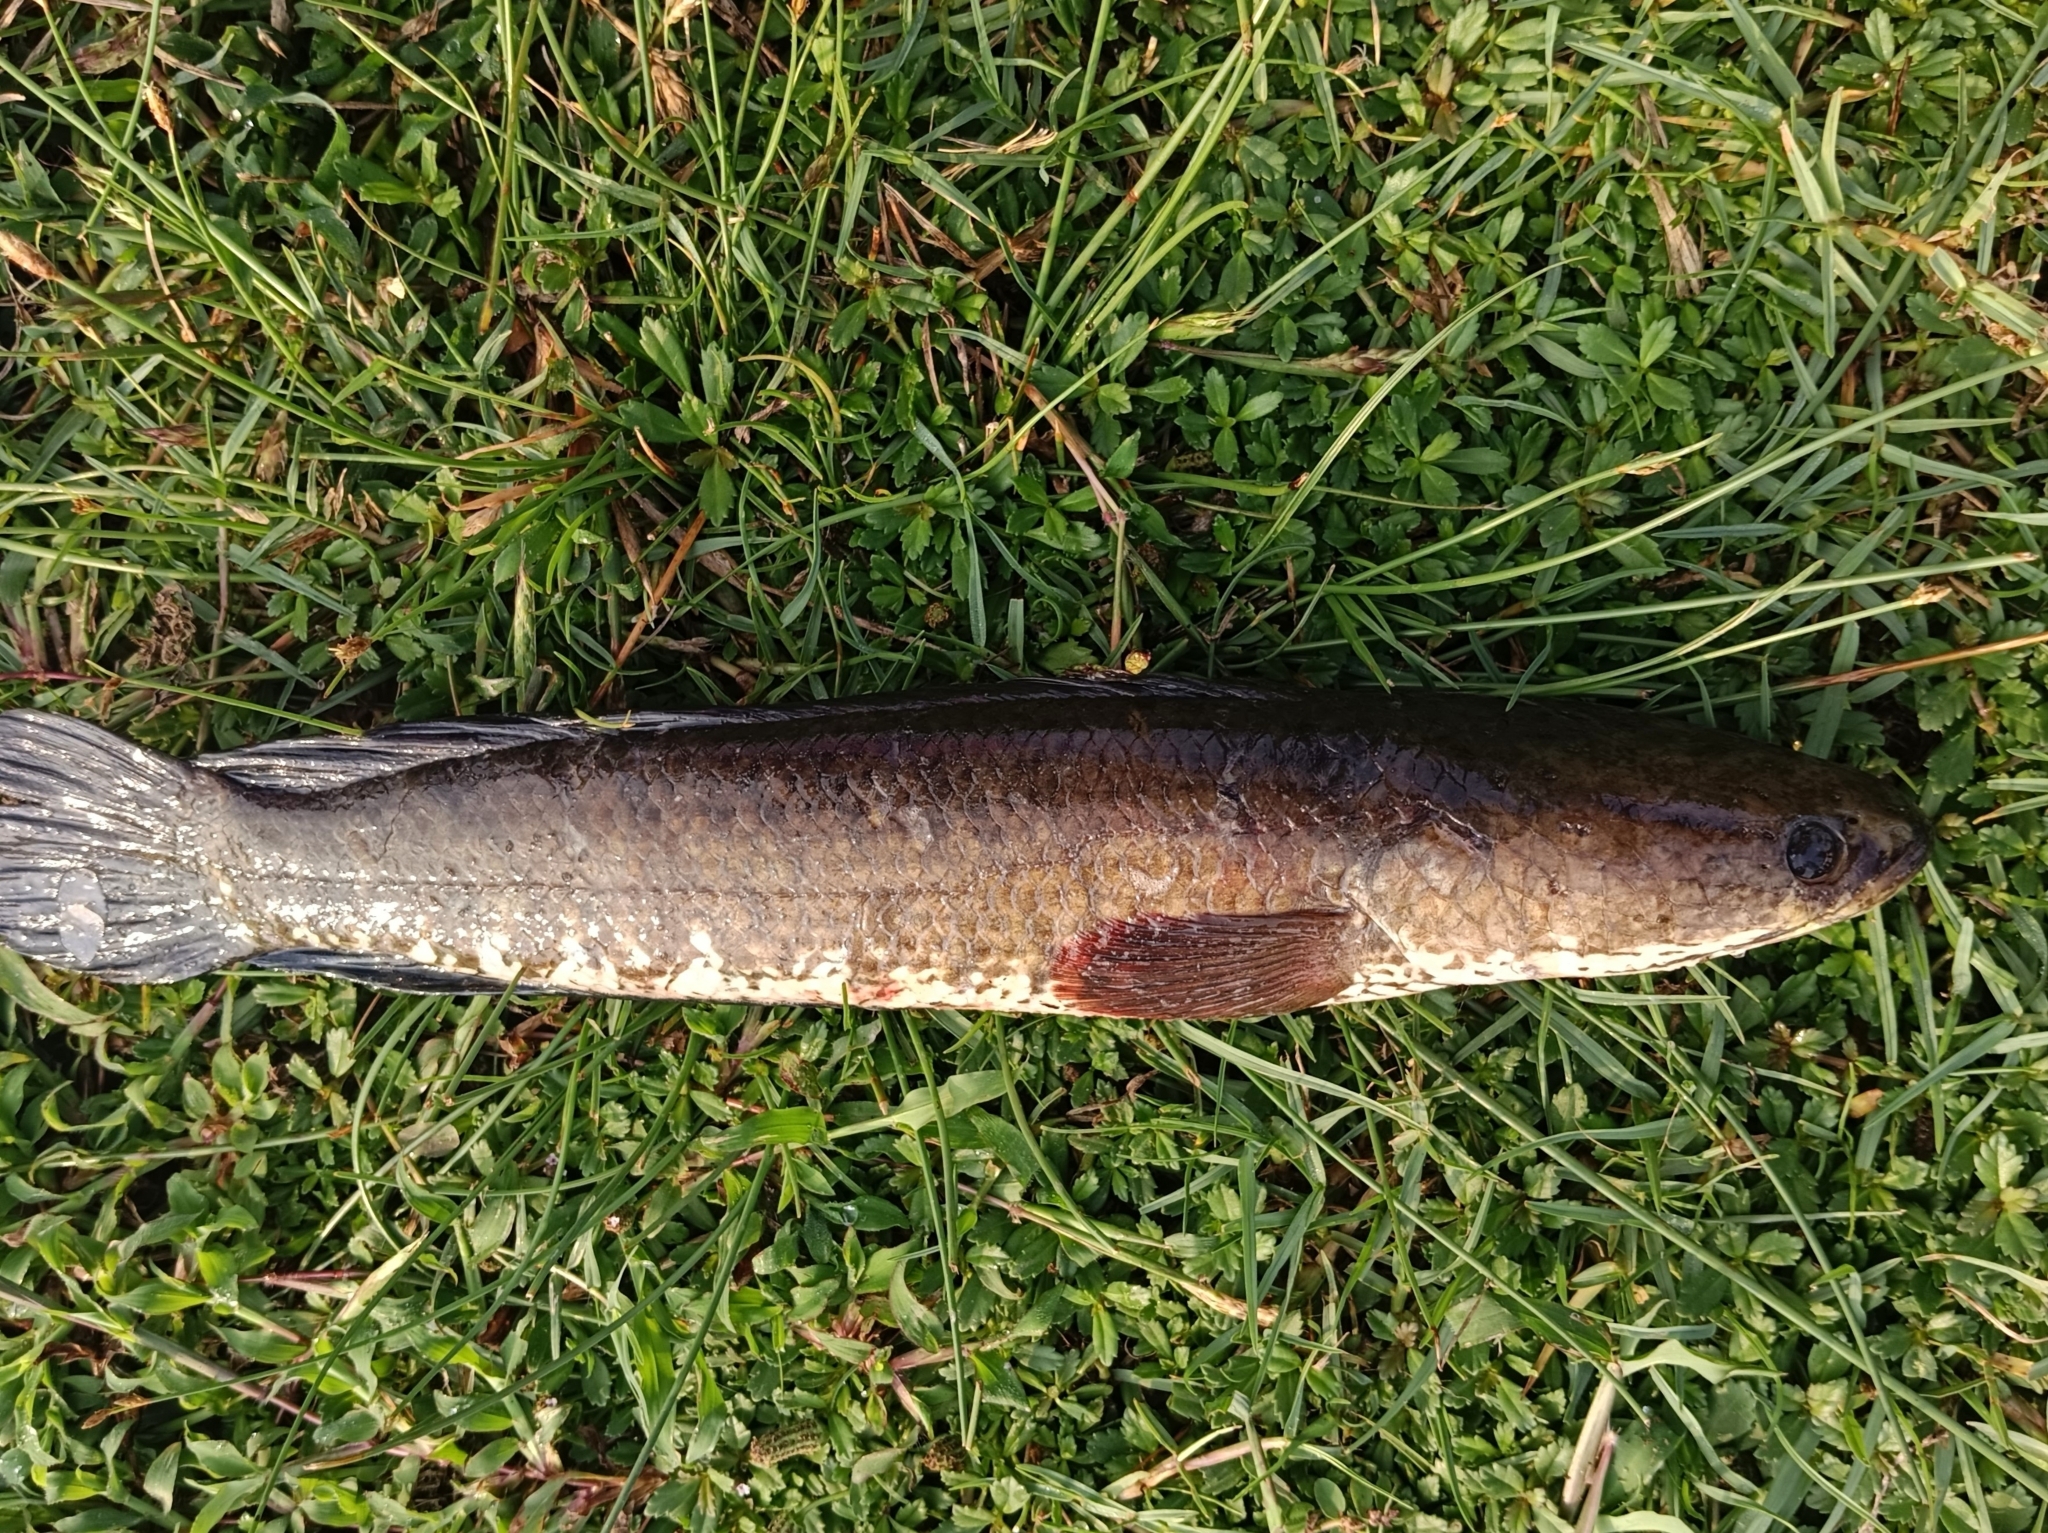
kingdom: Animalia
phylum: Chordata
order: Perciformes
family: Channidae
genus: Channa
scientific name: Channa striata
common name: Striped snakehead
